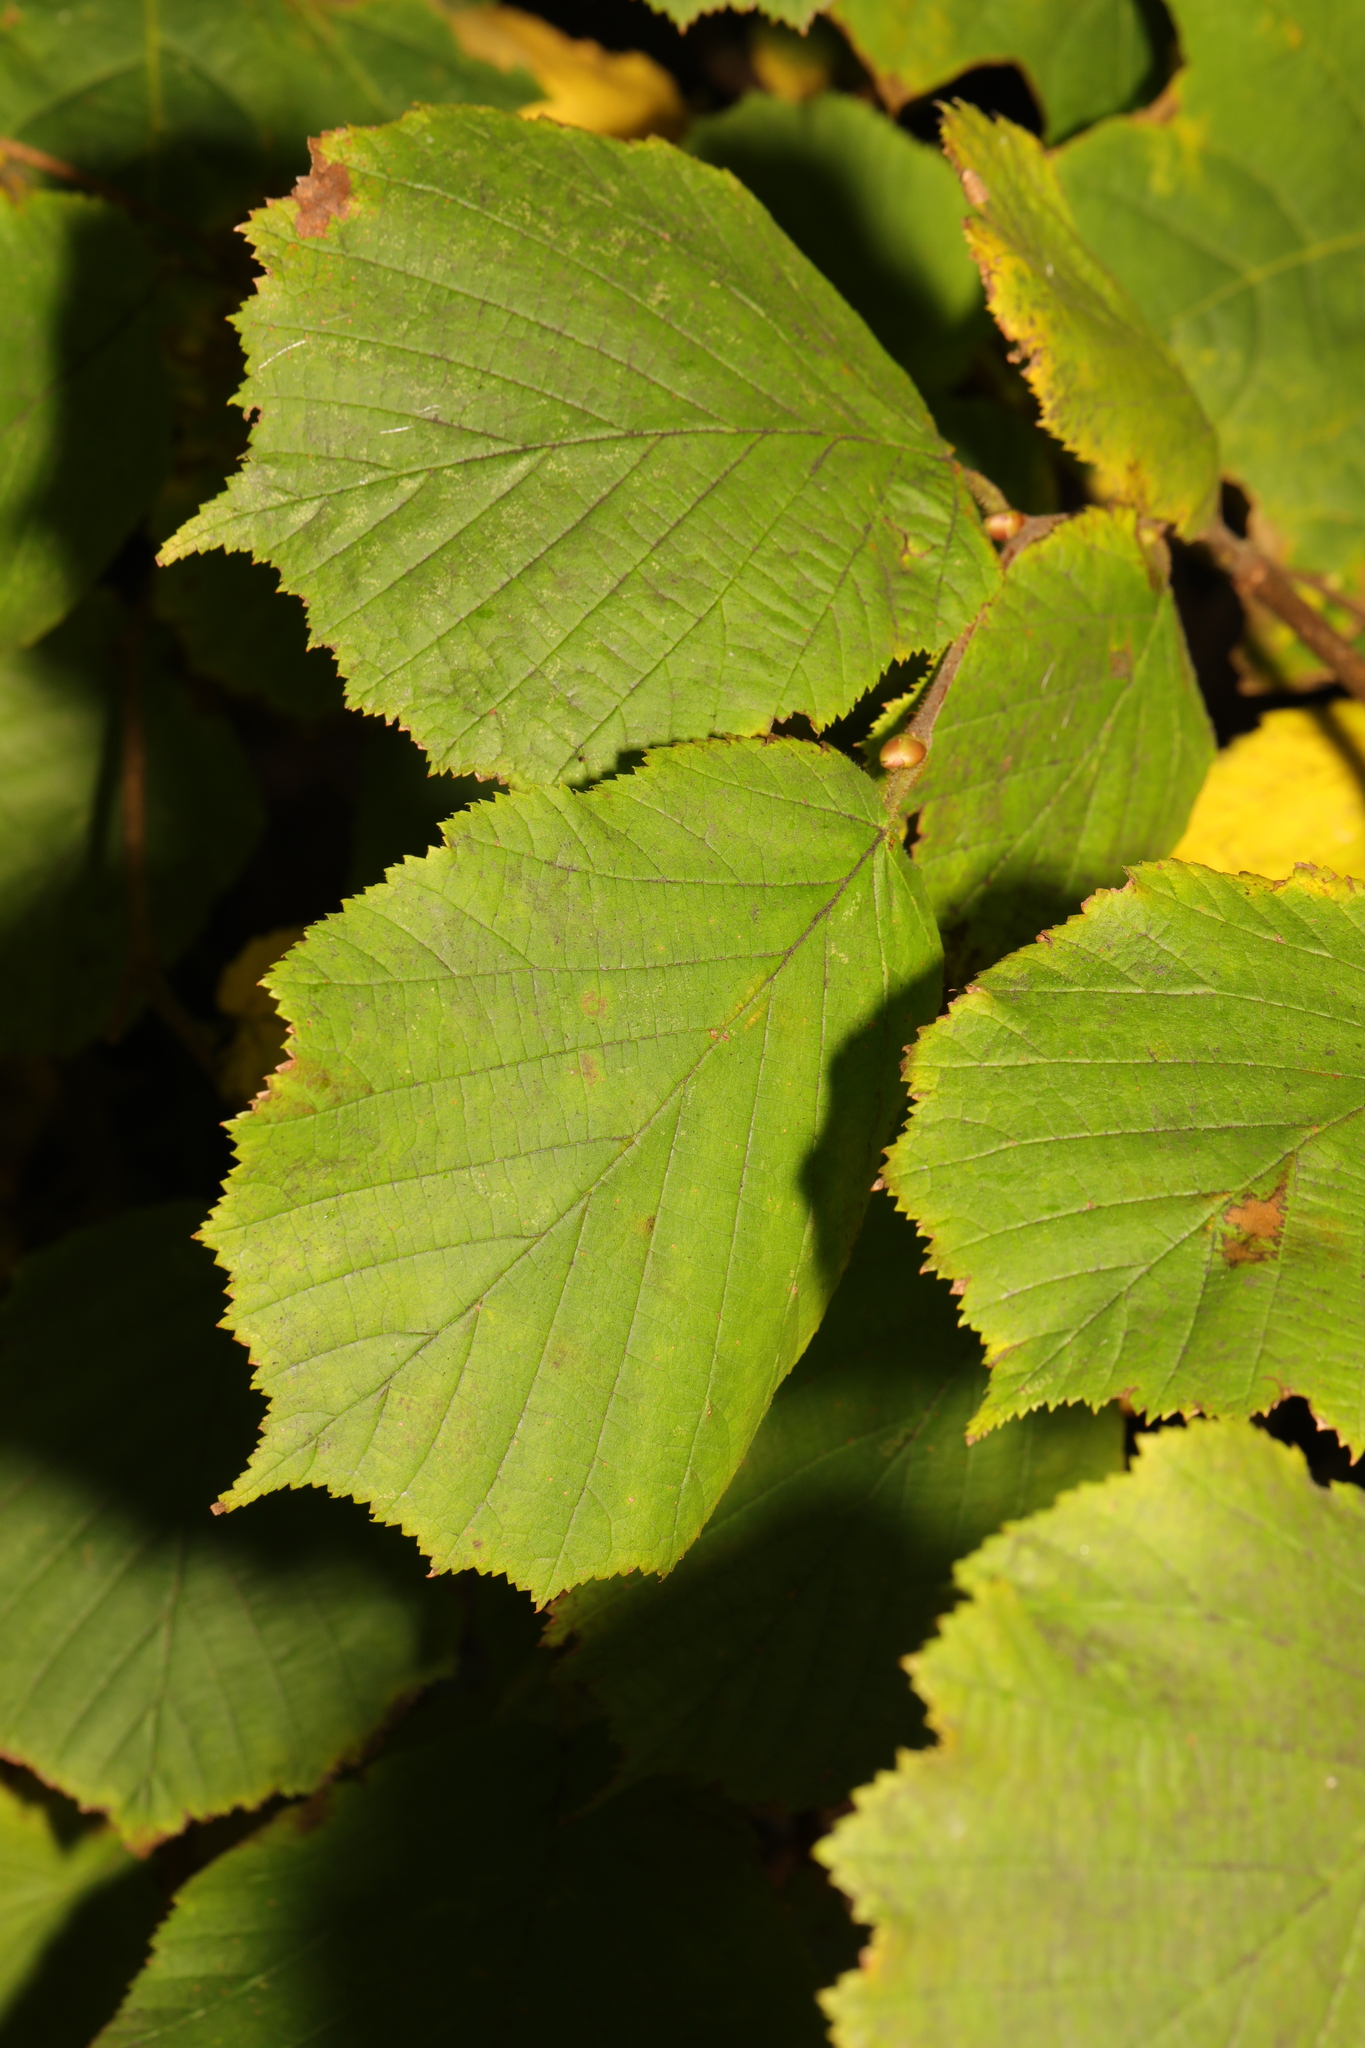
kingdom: Plantae
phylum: Tracheophyta
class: Magnoliopsida
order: Fagales
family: Betulaceae
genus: Corylus
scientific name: Corylus avellana
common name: European hazel
